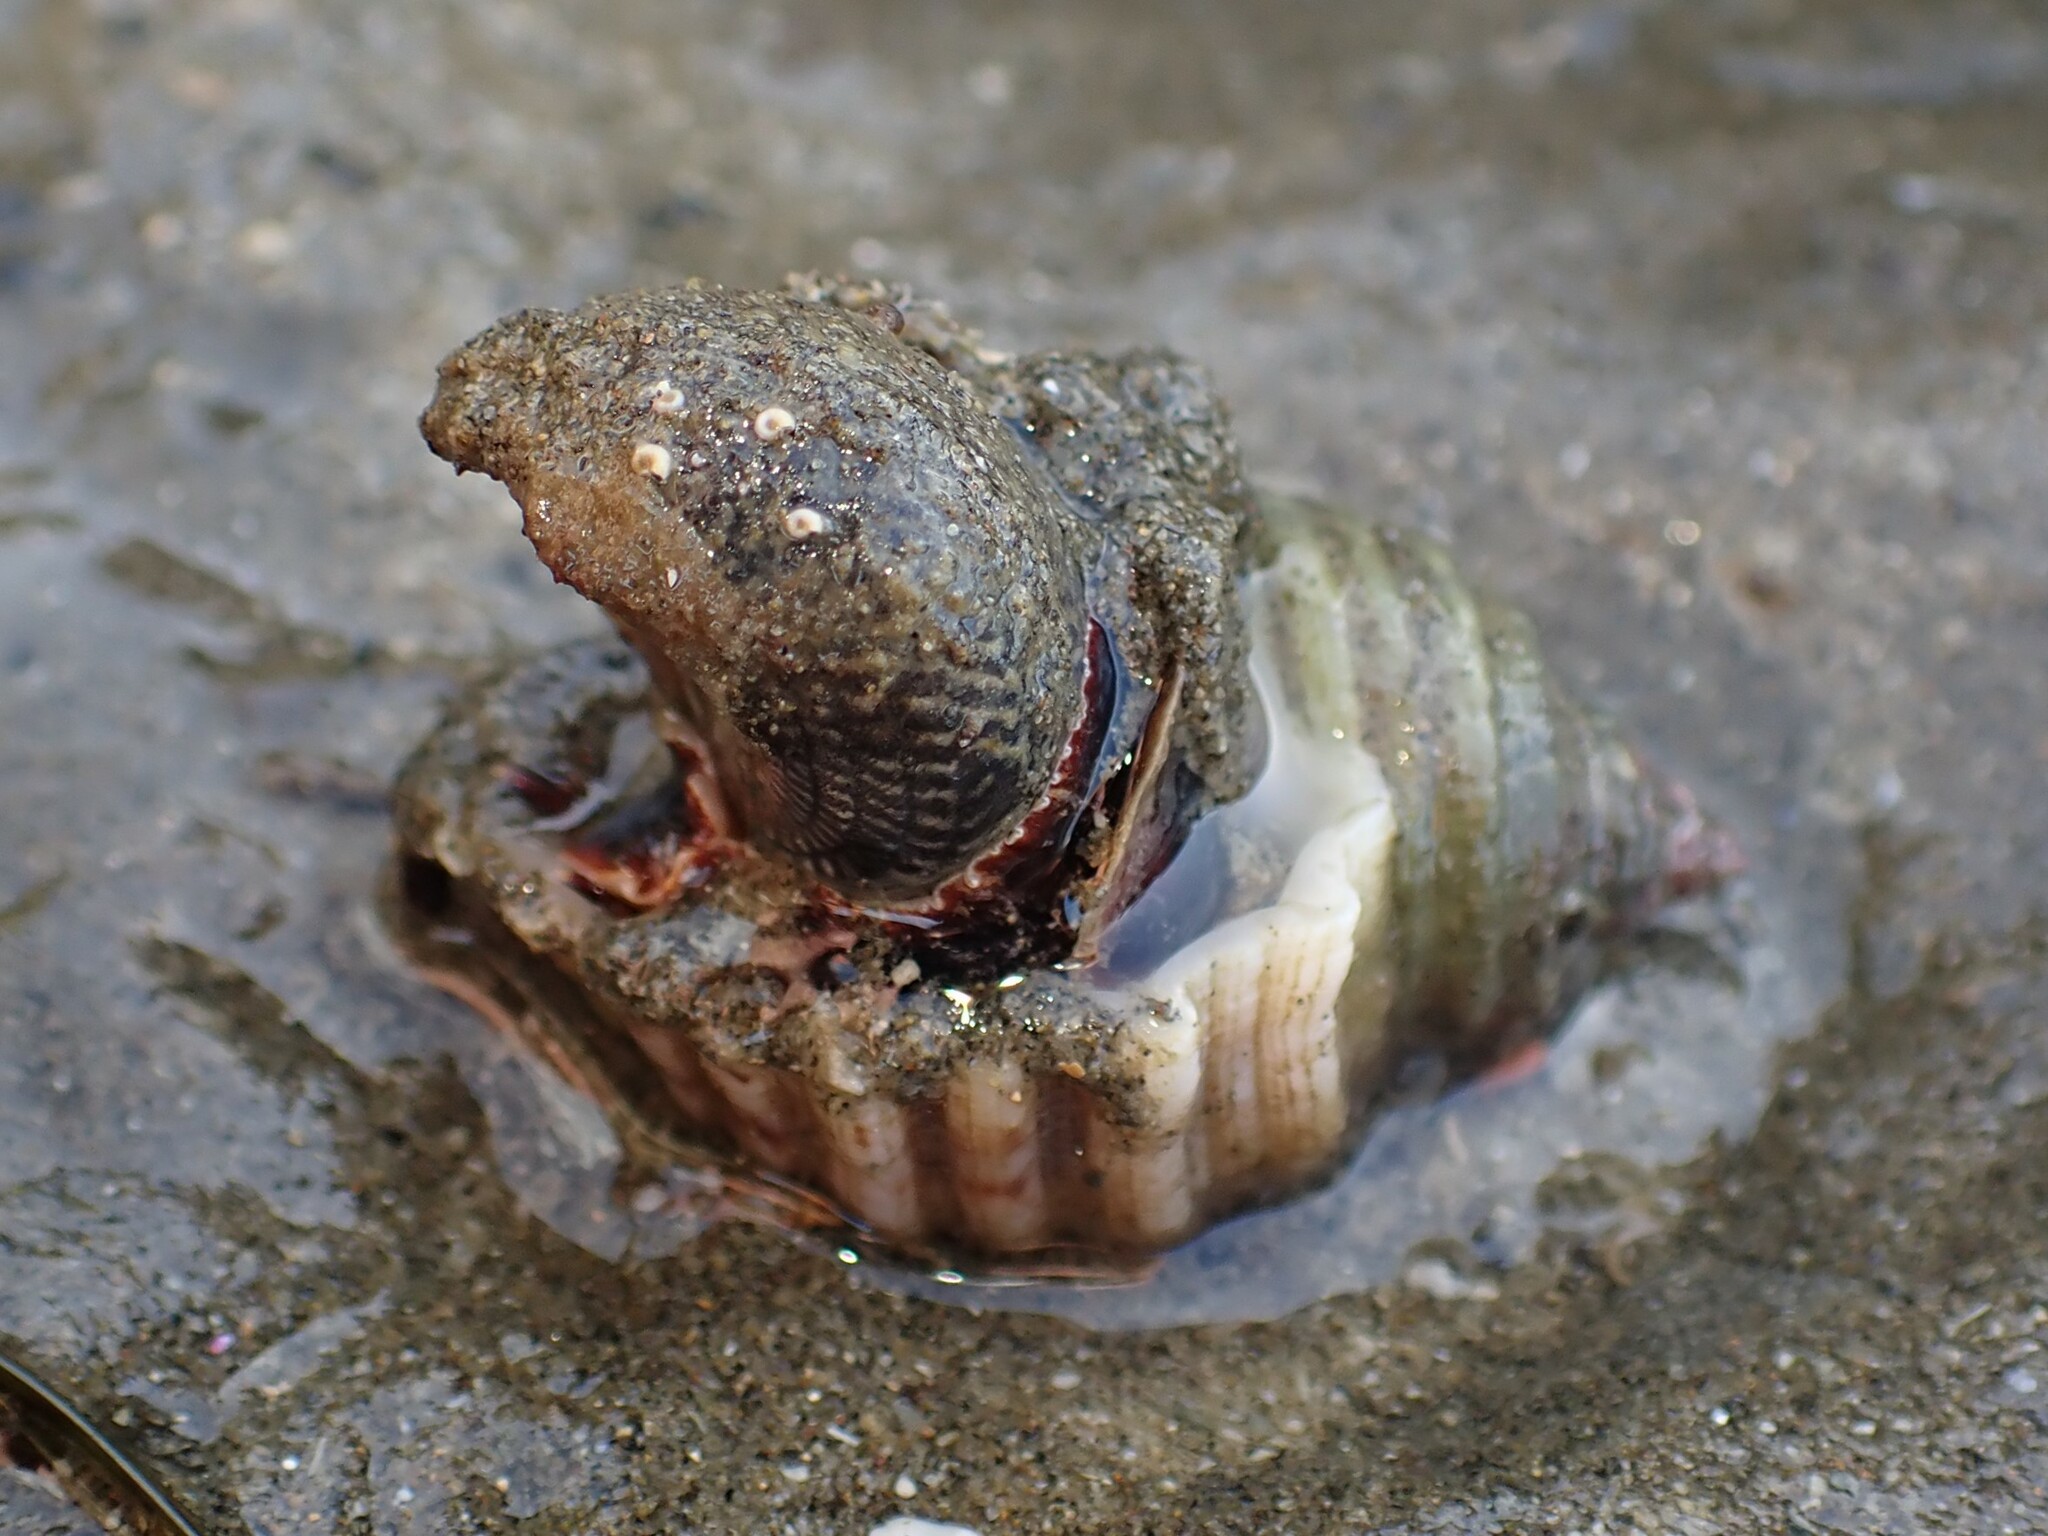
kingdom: Animalia
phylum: Mollusca
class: Gastropoda
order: Trochida
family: Trochidae
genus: Diloma
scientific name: Diloma aethiops
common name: Scorched monodont
